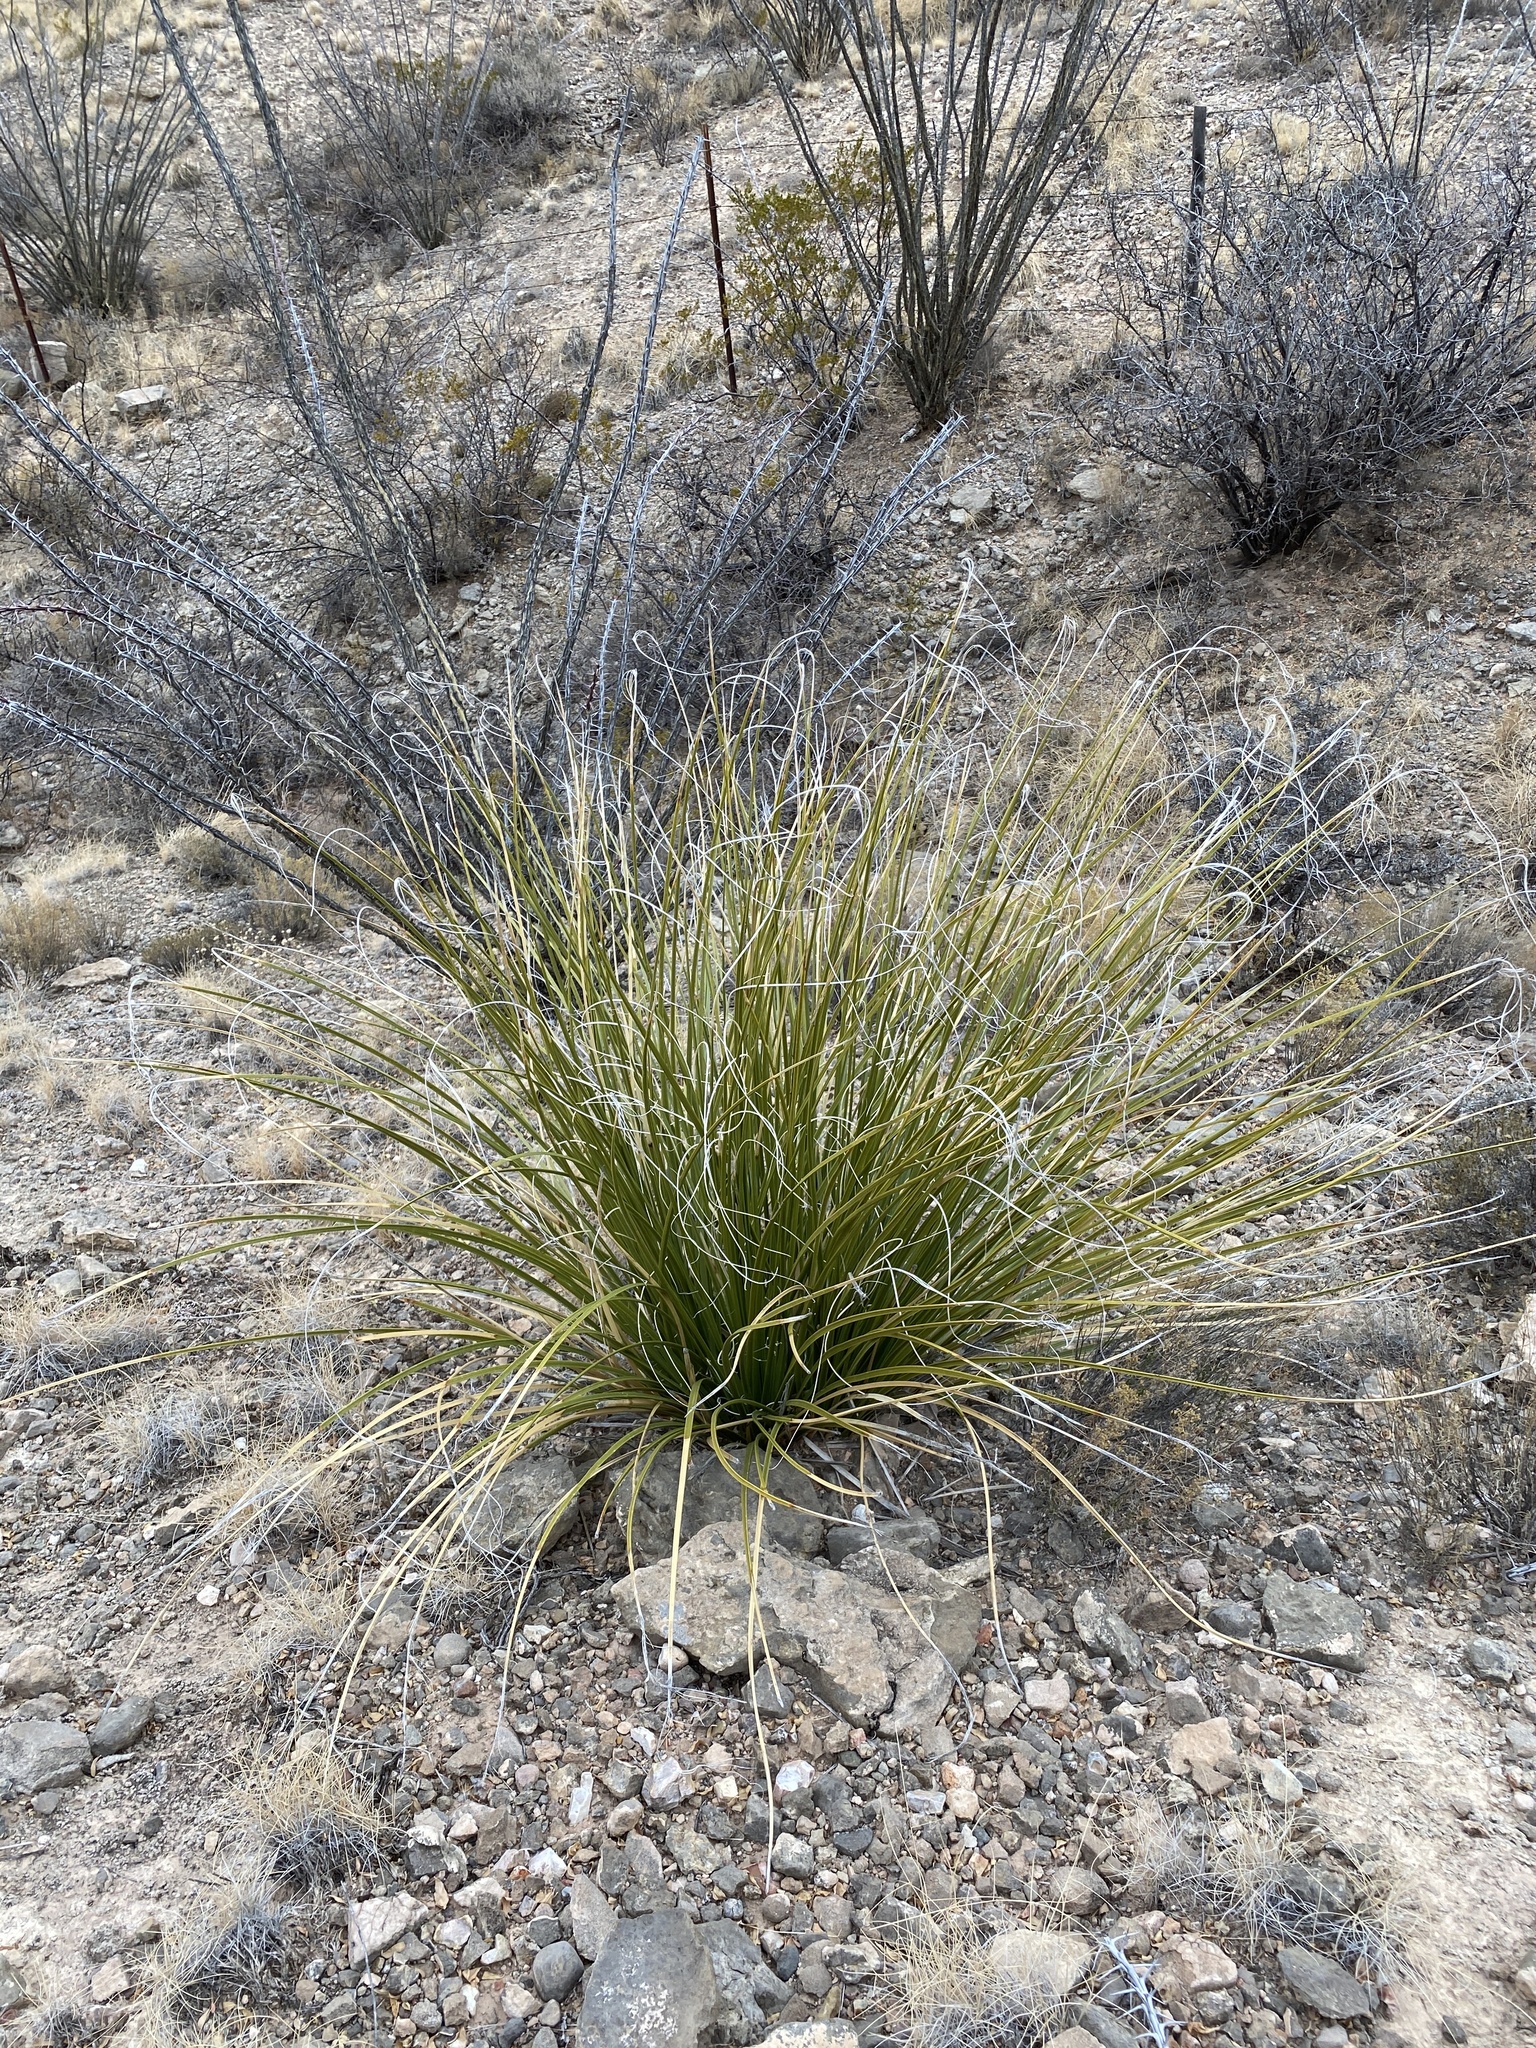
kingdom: Plantae
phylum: Tracheophyta
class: Liliopsida
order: Asparagales
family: Asparagaceae
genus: Nolina
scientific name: Nolina microcarpa
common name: Bear-grass
